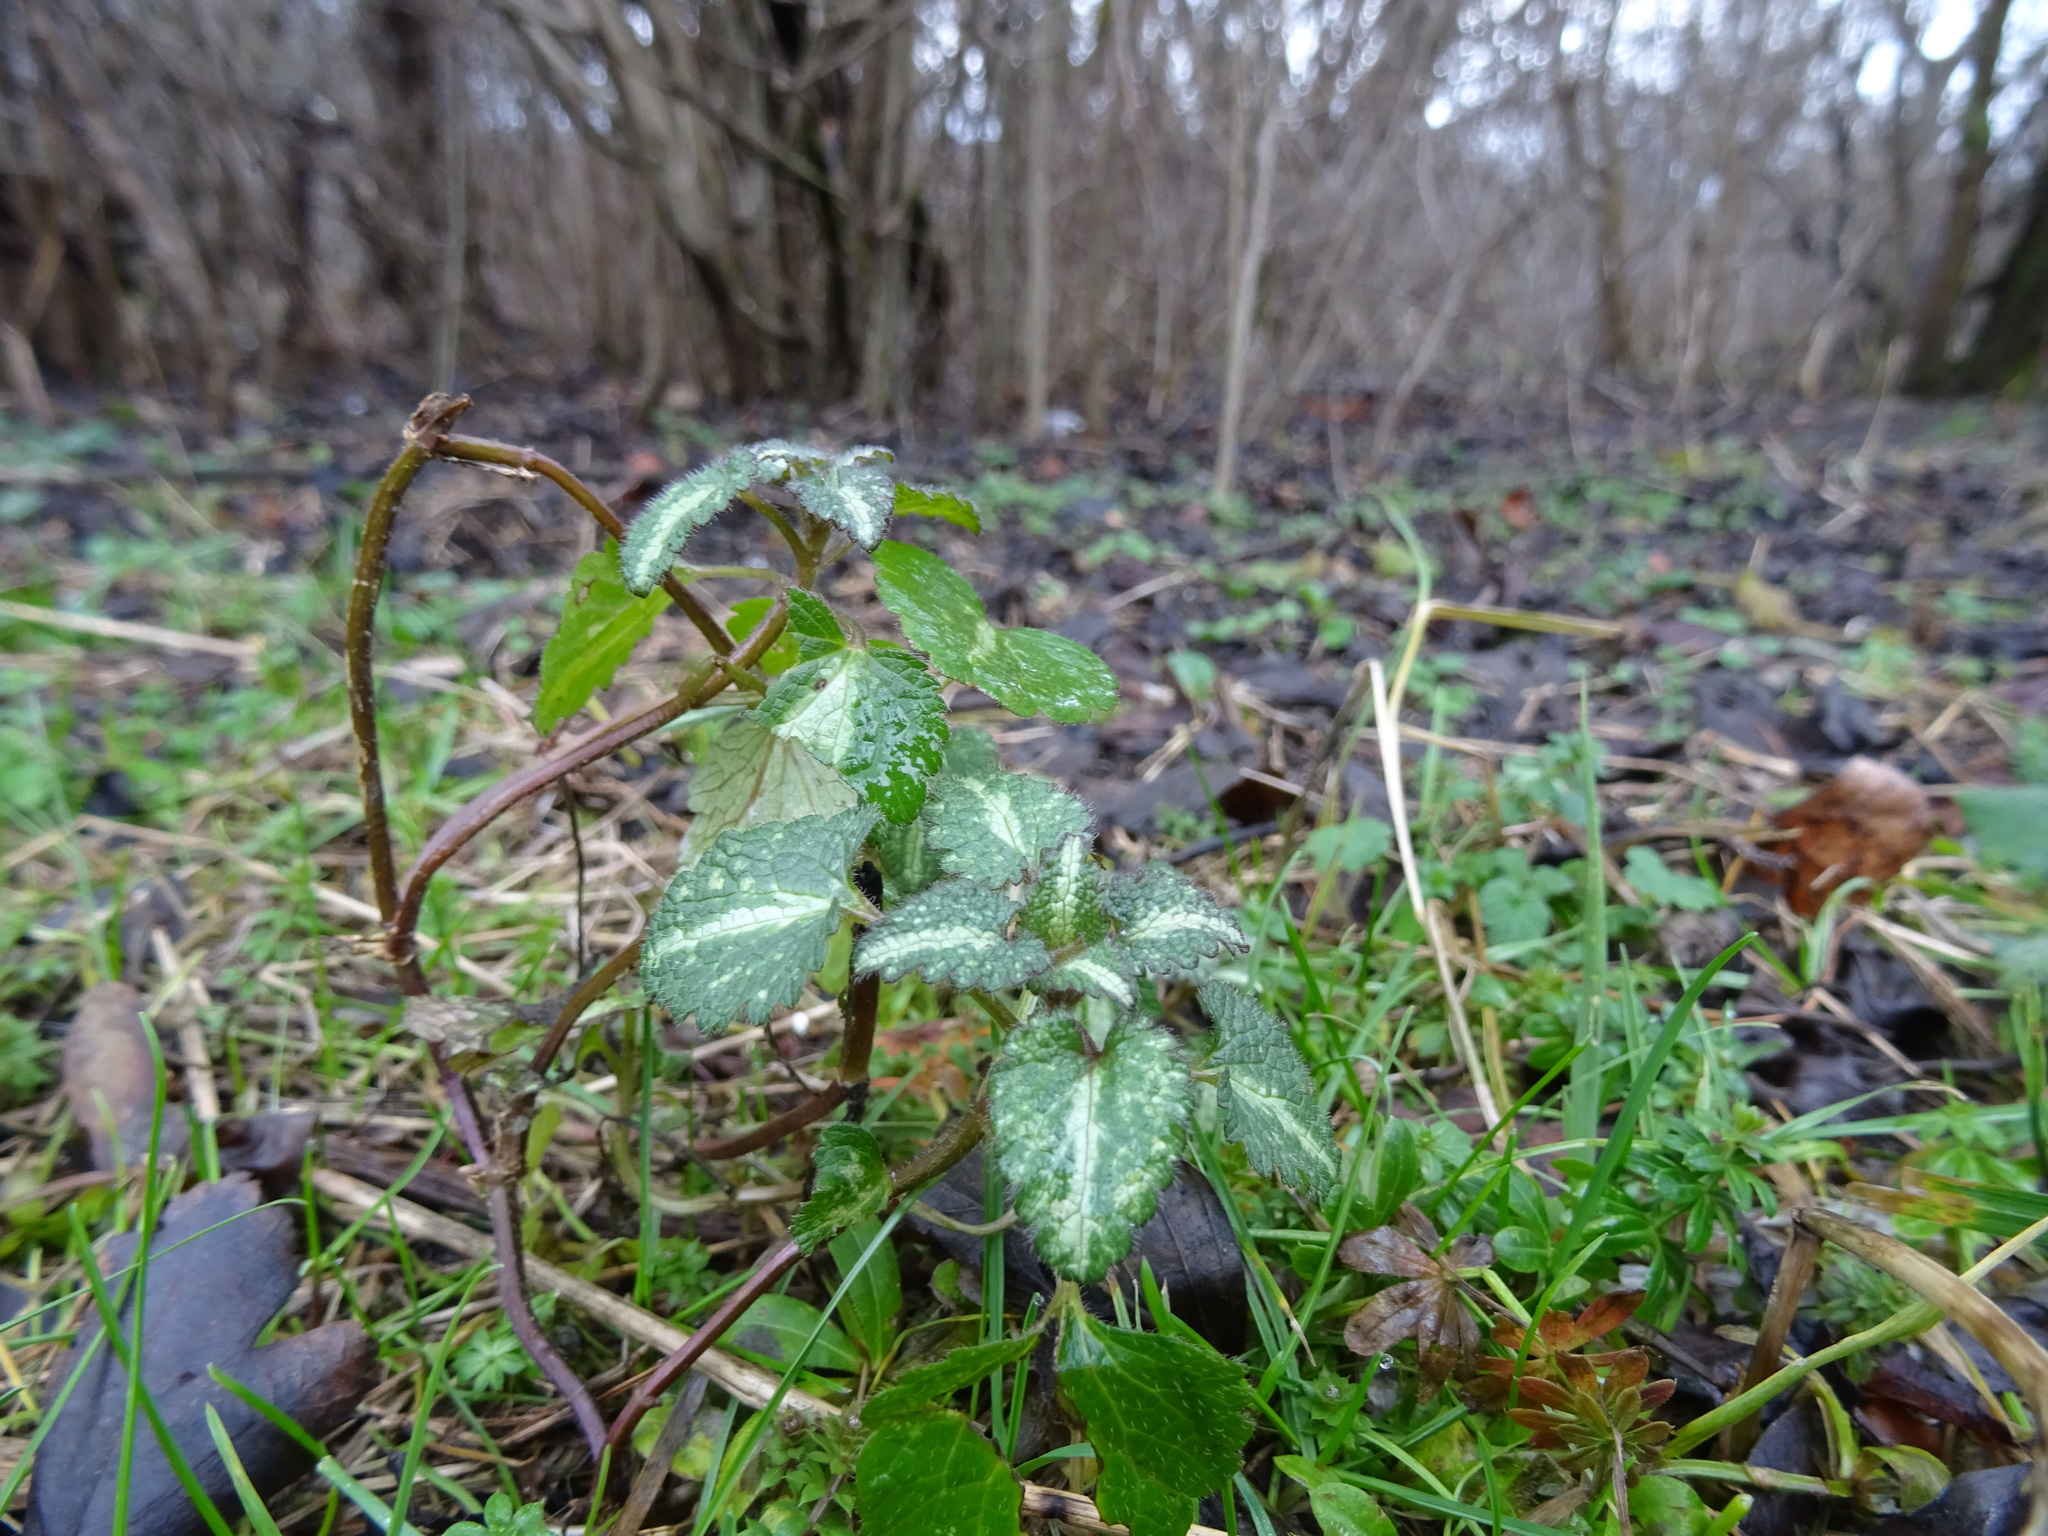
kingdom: Plantae
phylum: Tracheophyta
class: Magnoliopsida
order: Lamiales
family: Lamiaceae
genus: Lamium
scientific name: Lamium maculatum
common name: Spotted dead-nettle
